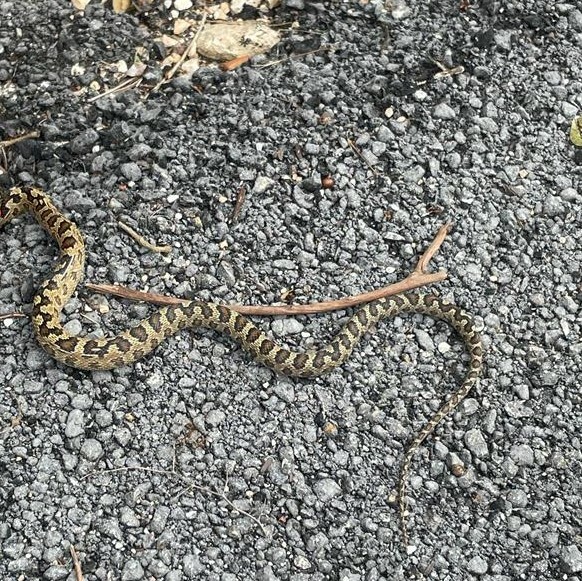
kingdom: Animalia
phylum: Chordata
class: Squamata
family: Colubridae
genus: Senticolis
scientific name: Senticolis triaspis
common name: Green rat snake
